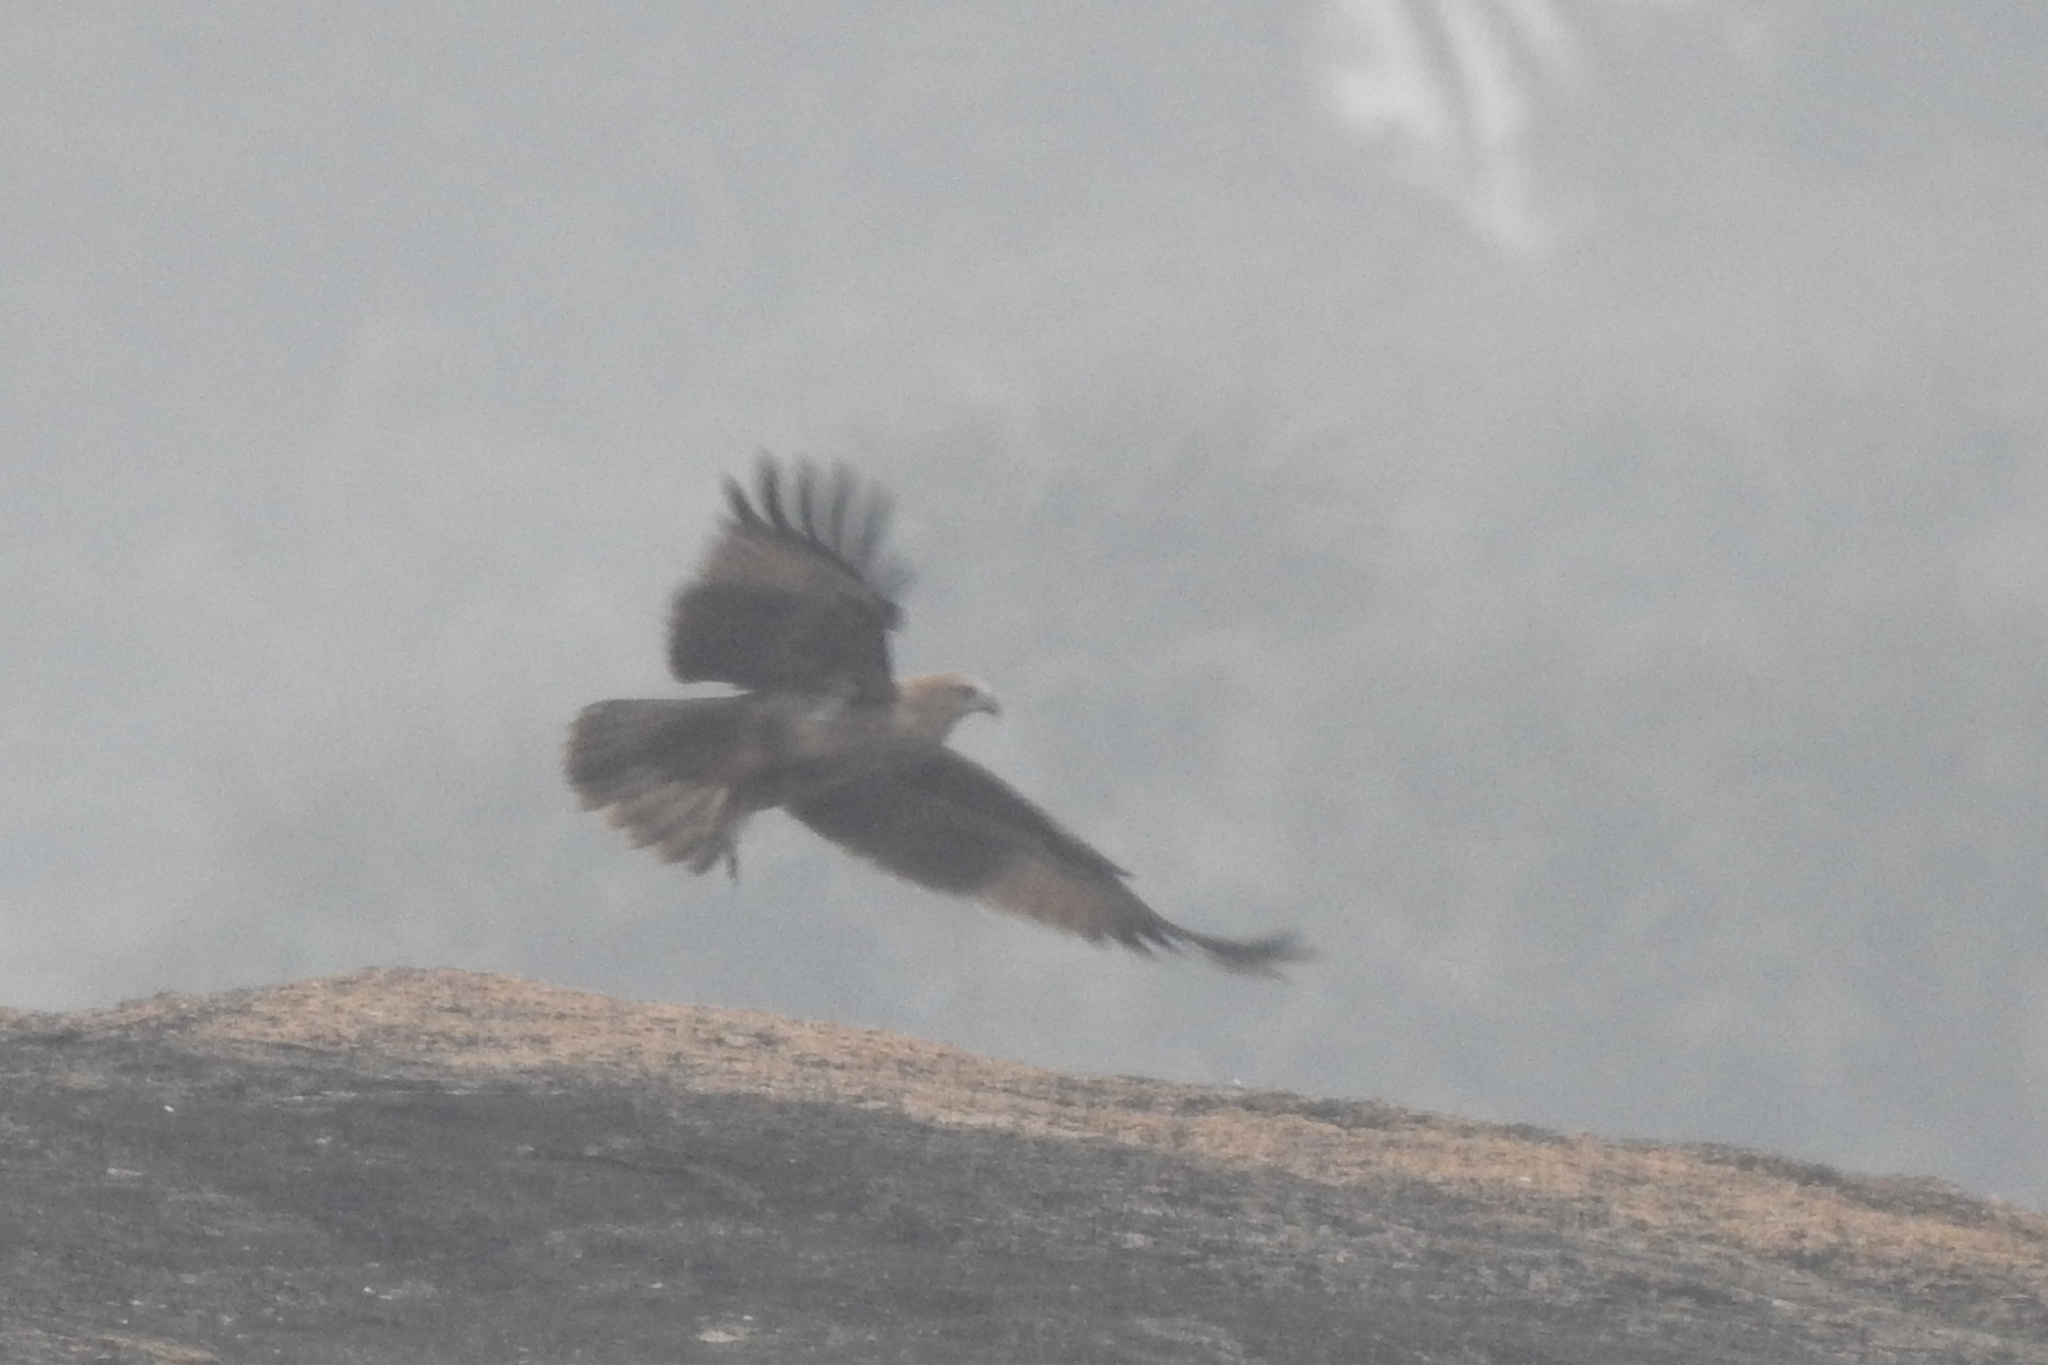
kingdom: Animalia
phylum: Chordata
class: Aves
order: Accipitriformes
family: Accipitridae
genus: Haliastur
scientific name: Haliastur indus
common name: Brahminy kite
